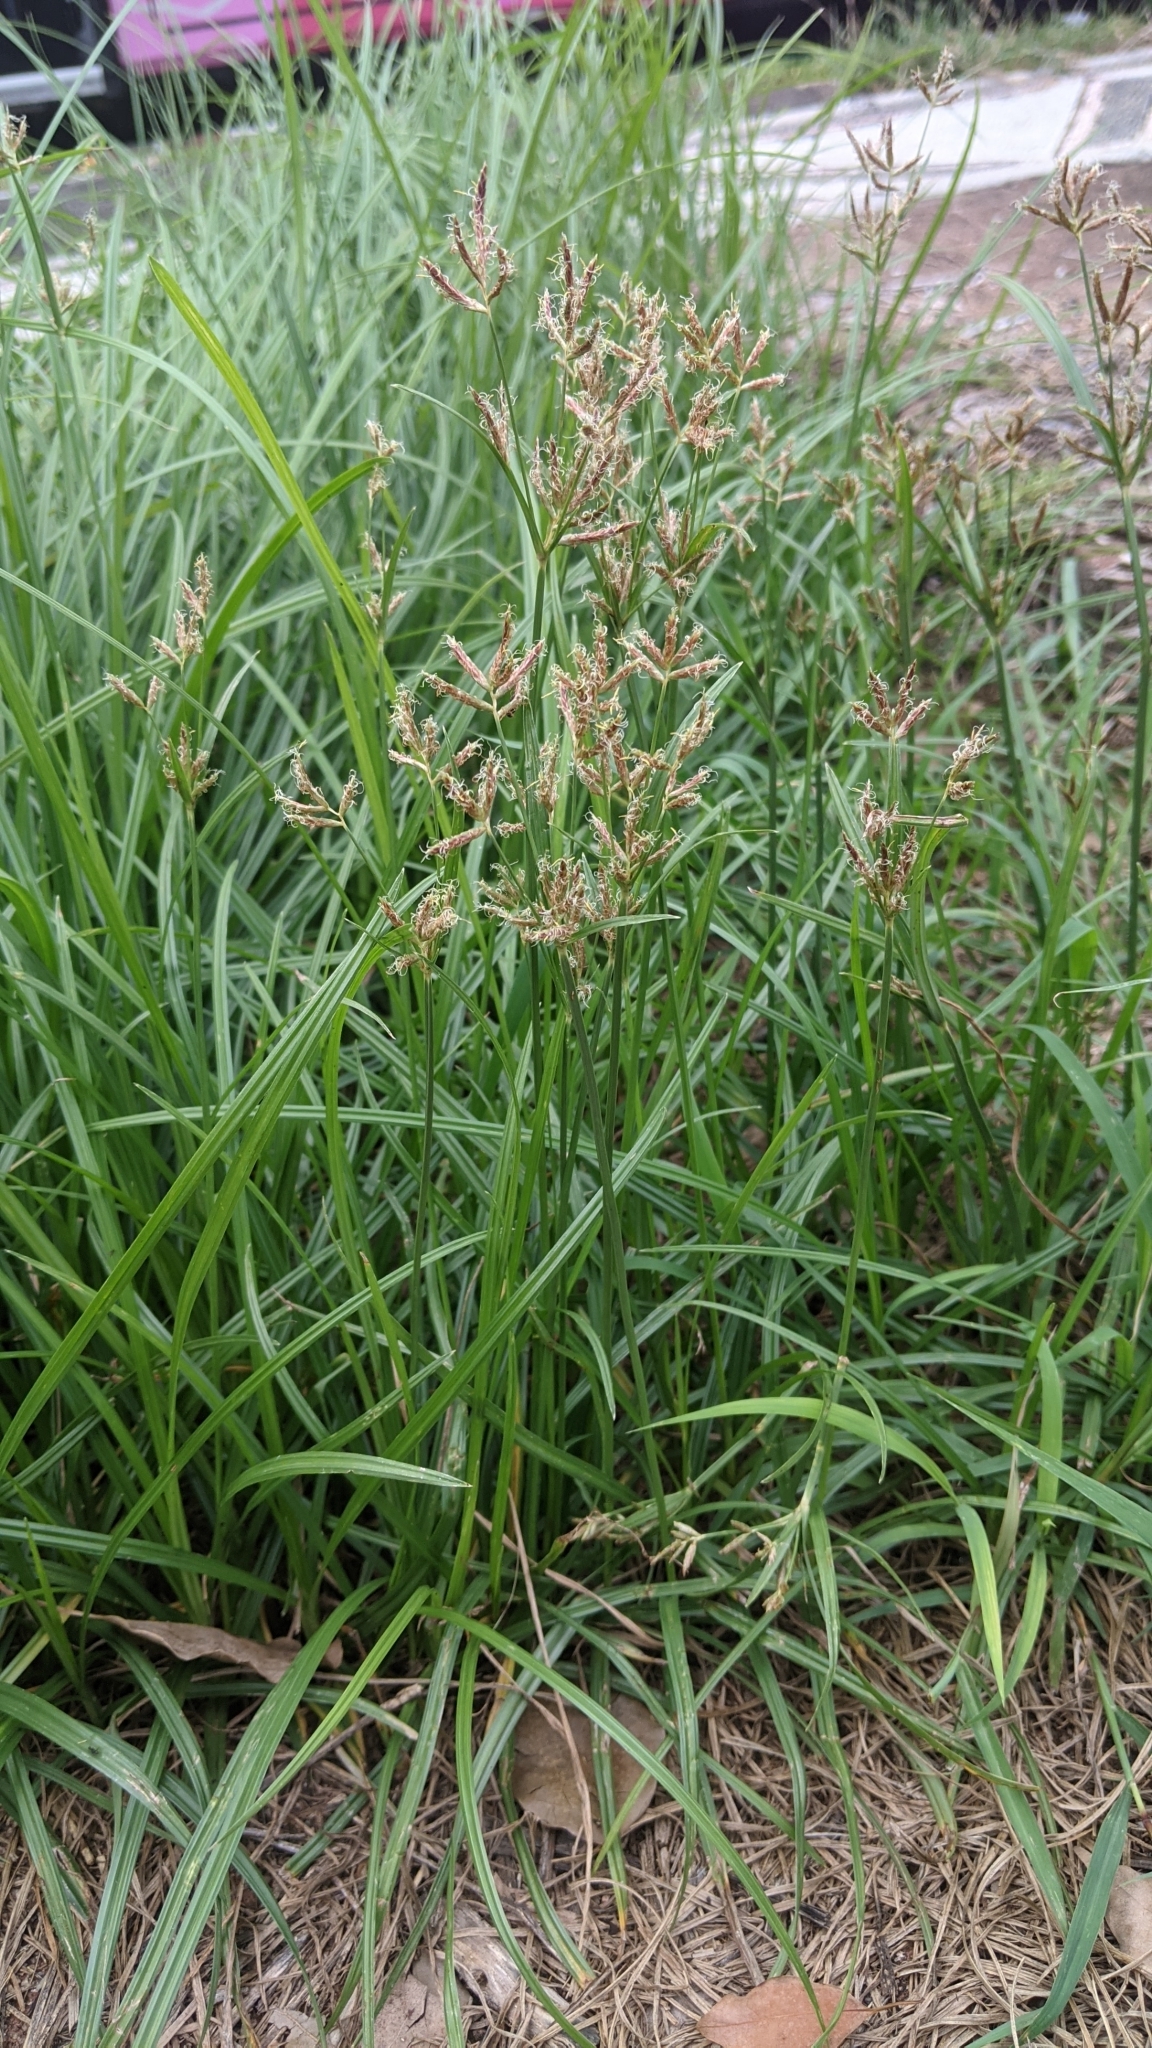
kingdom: Plantae
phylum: Tracheophyta
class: Liliopsida
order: Poales
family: Cyperaceae
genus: Cyperus
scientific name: Cyperus rotundus
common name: Nutgrass
